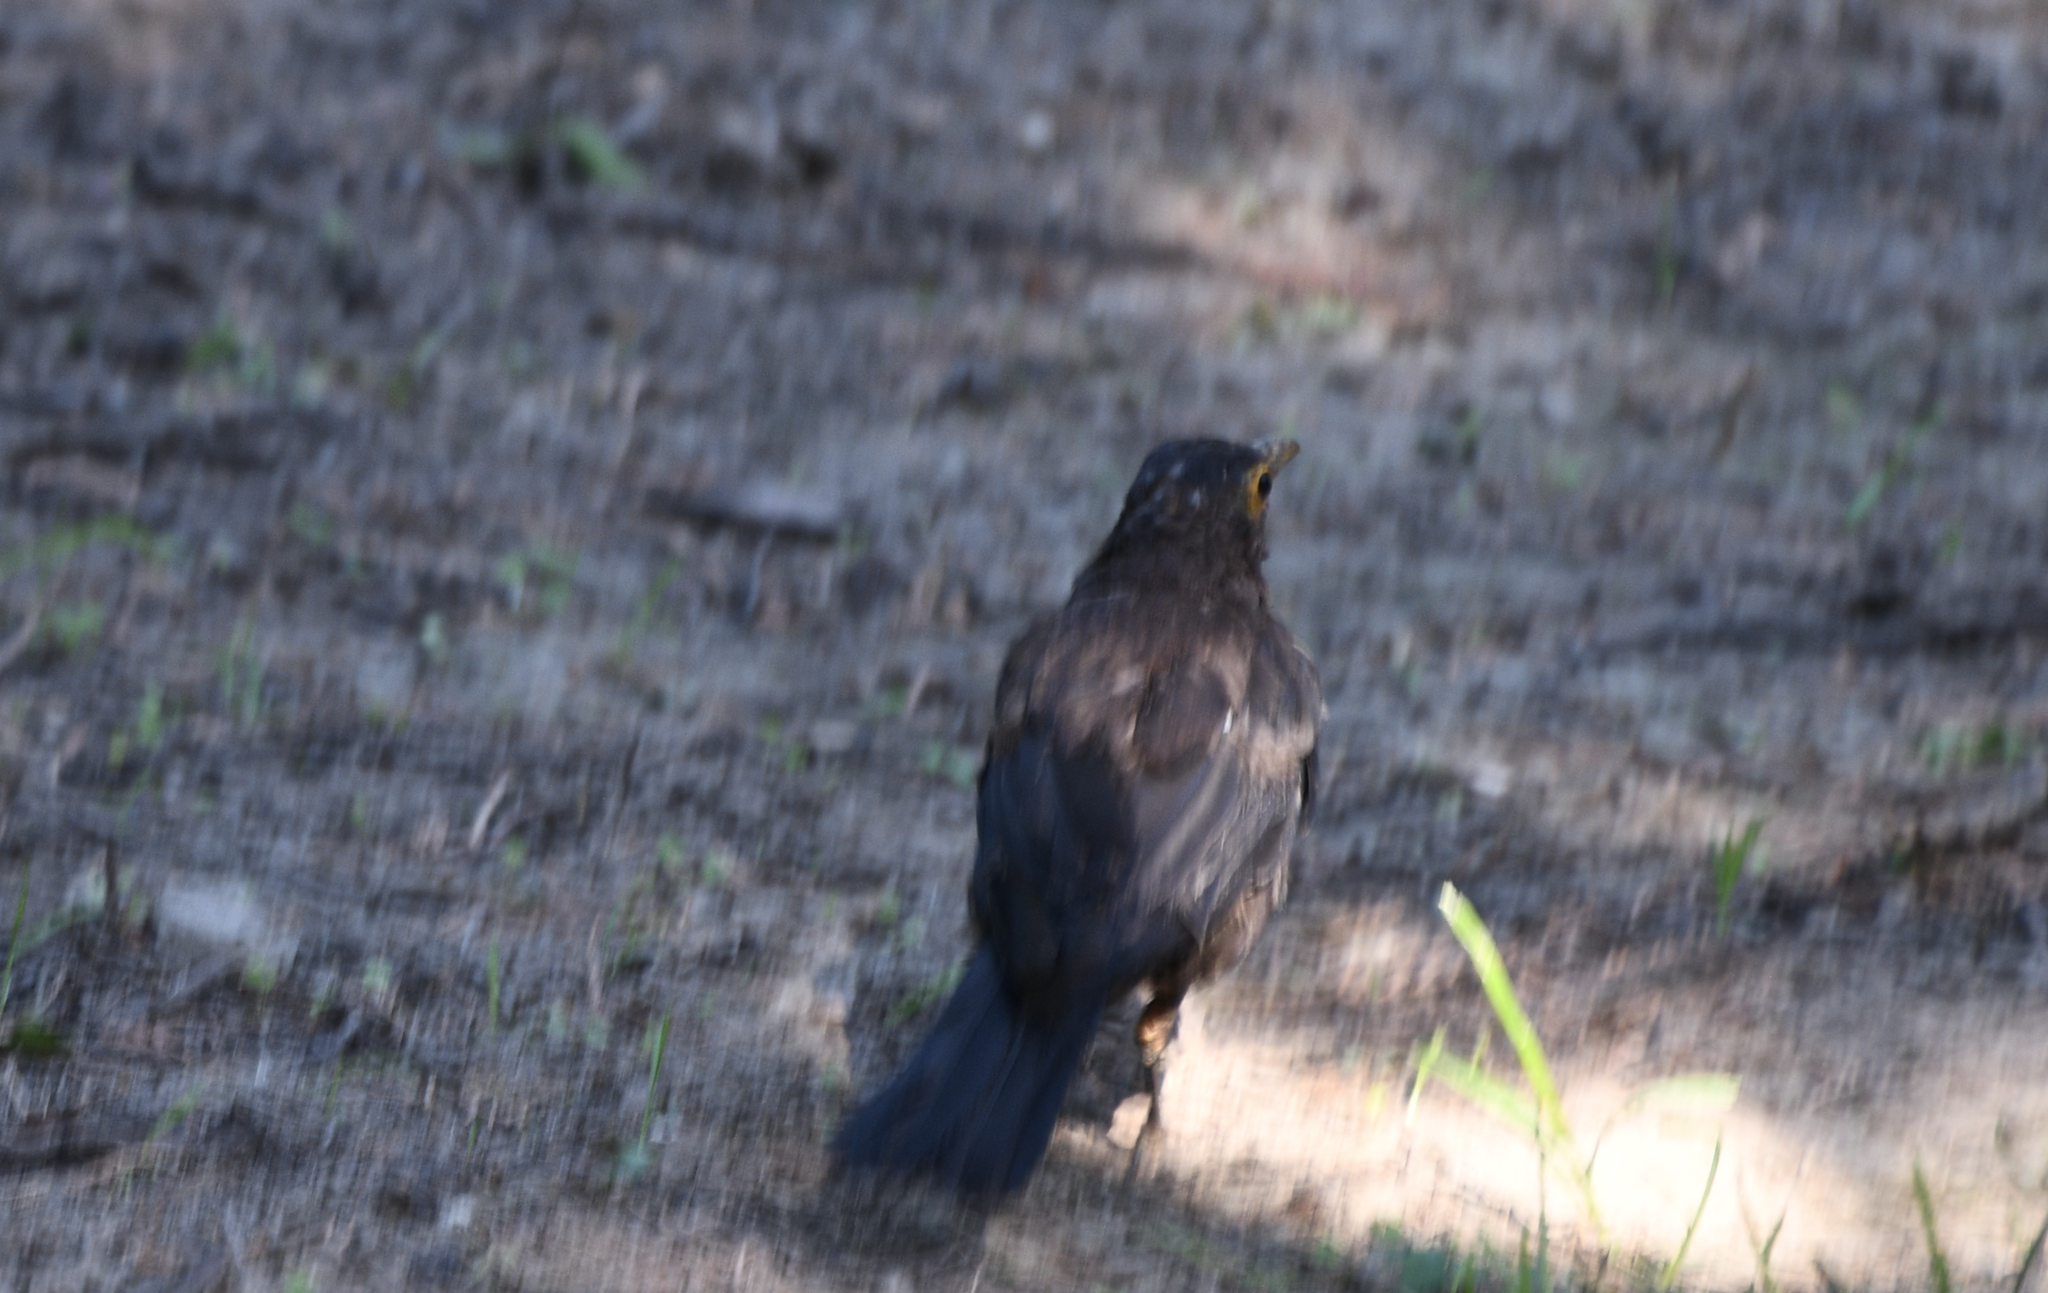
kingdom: Animalia
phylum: Chordata
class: Aves
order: Passeriformes
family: Turdidae
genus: Turdus
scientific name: Turdus mandarinus
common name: Chinese blackbird
